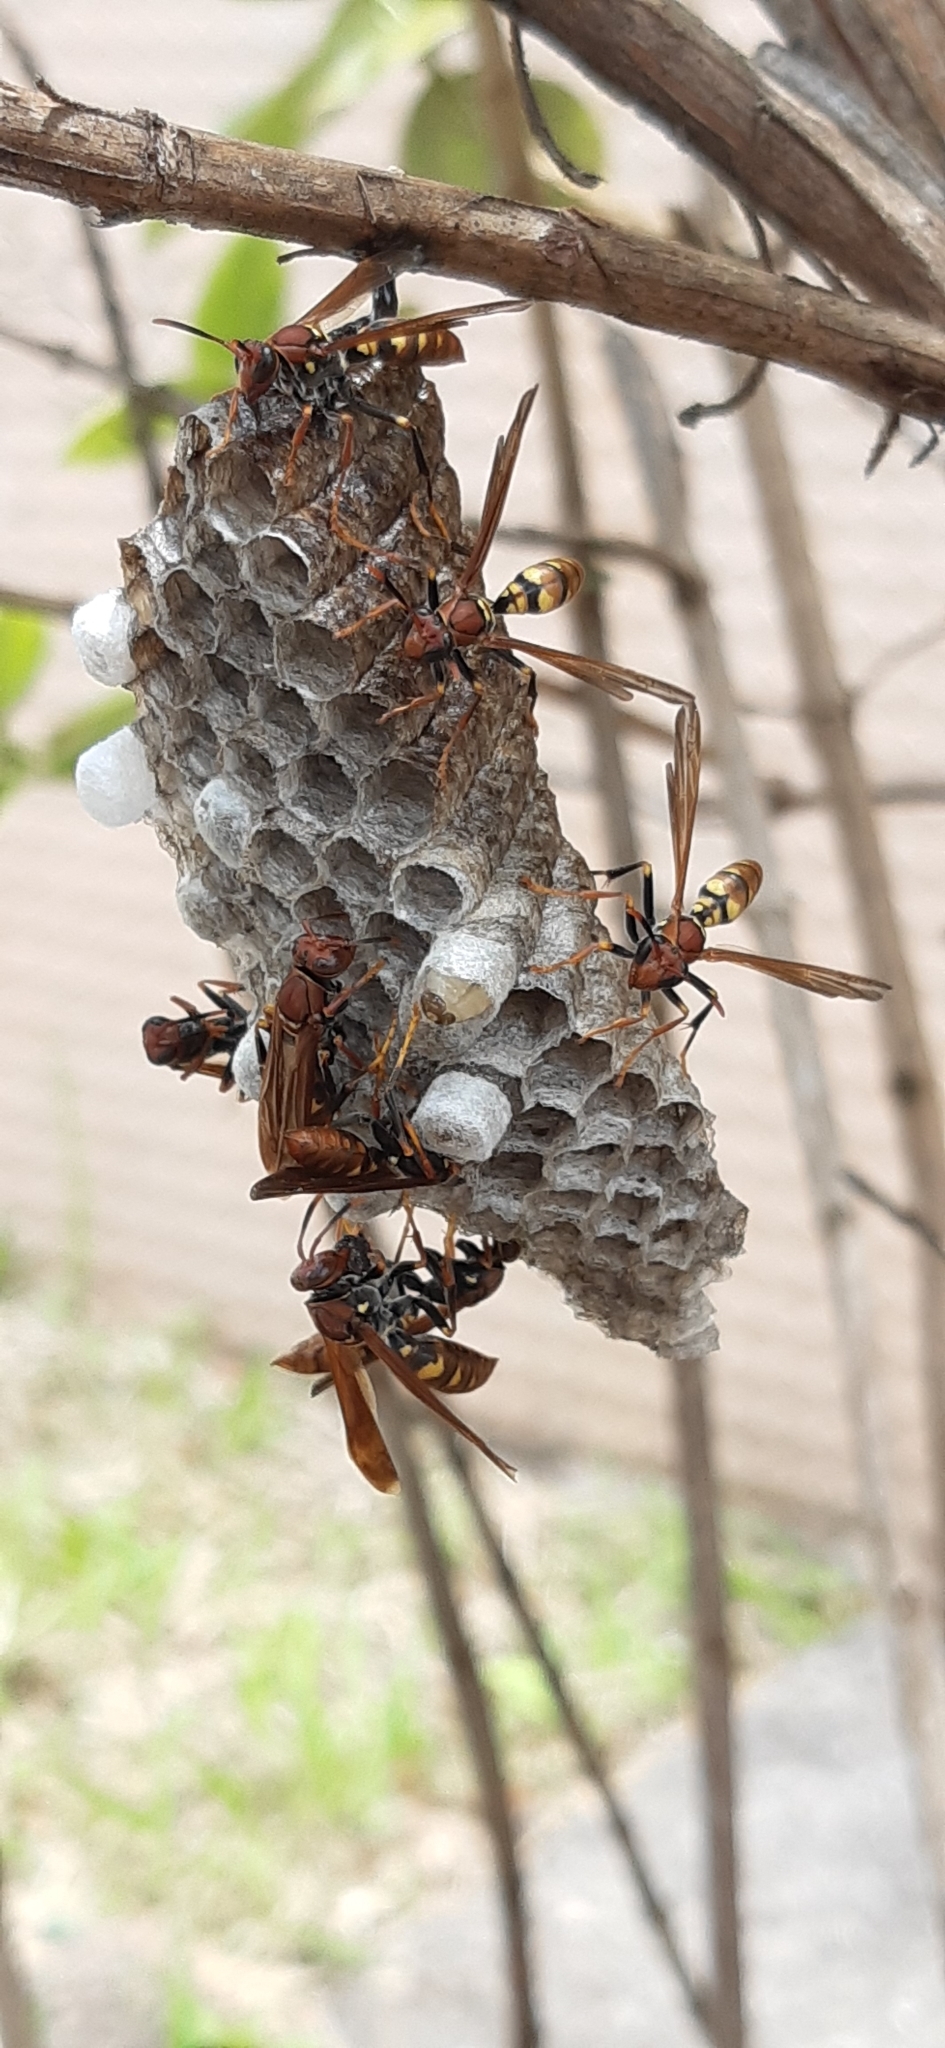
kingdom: Animalia
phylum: Arthropoda
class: Insecta
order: Hymenoptera
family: Eumenidae
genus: Polistes
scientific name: Polistes versicolor
